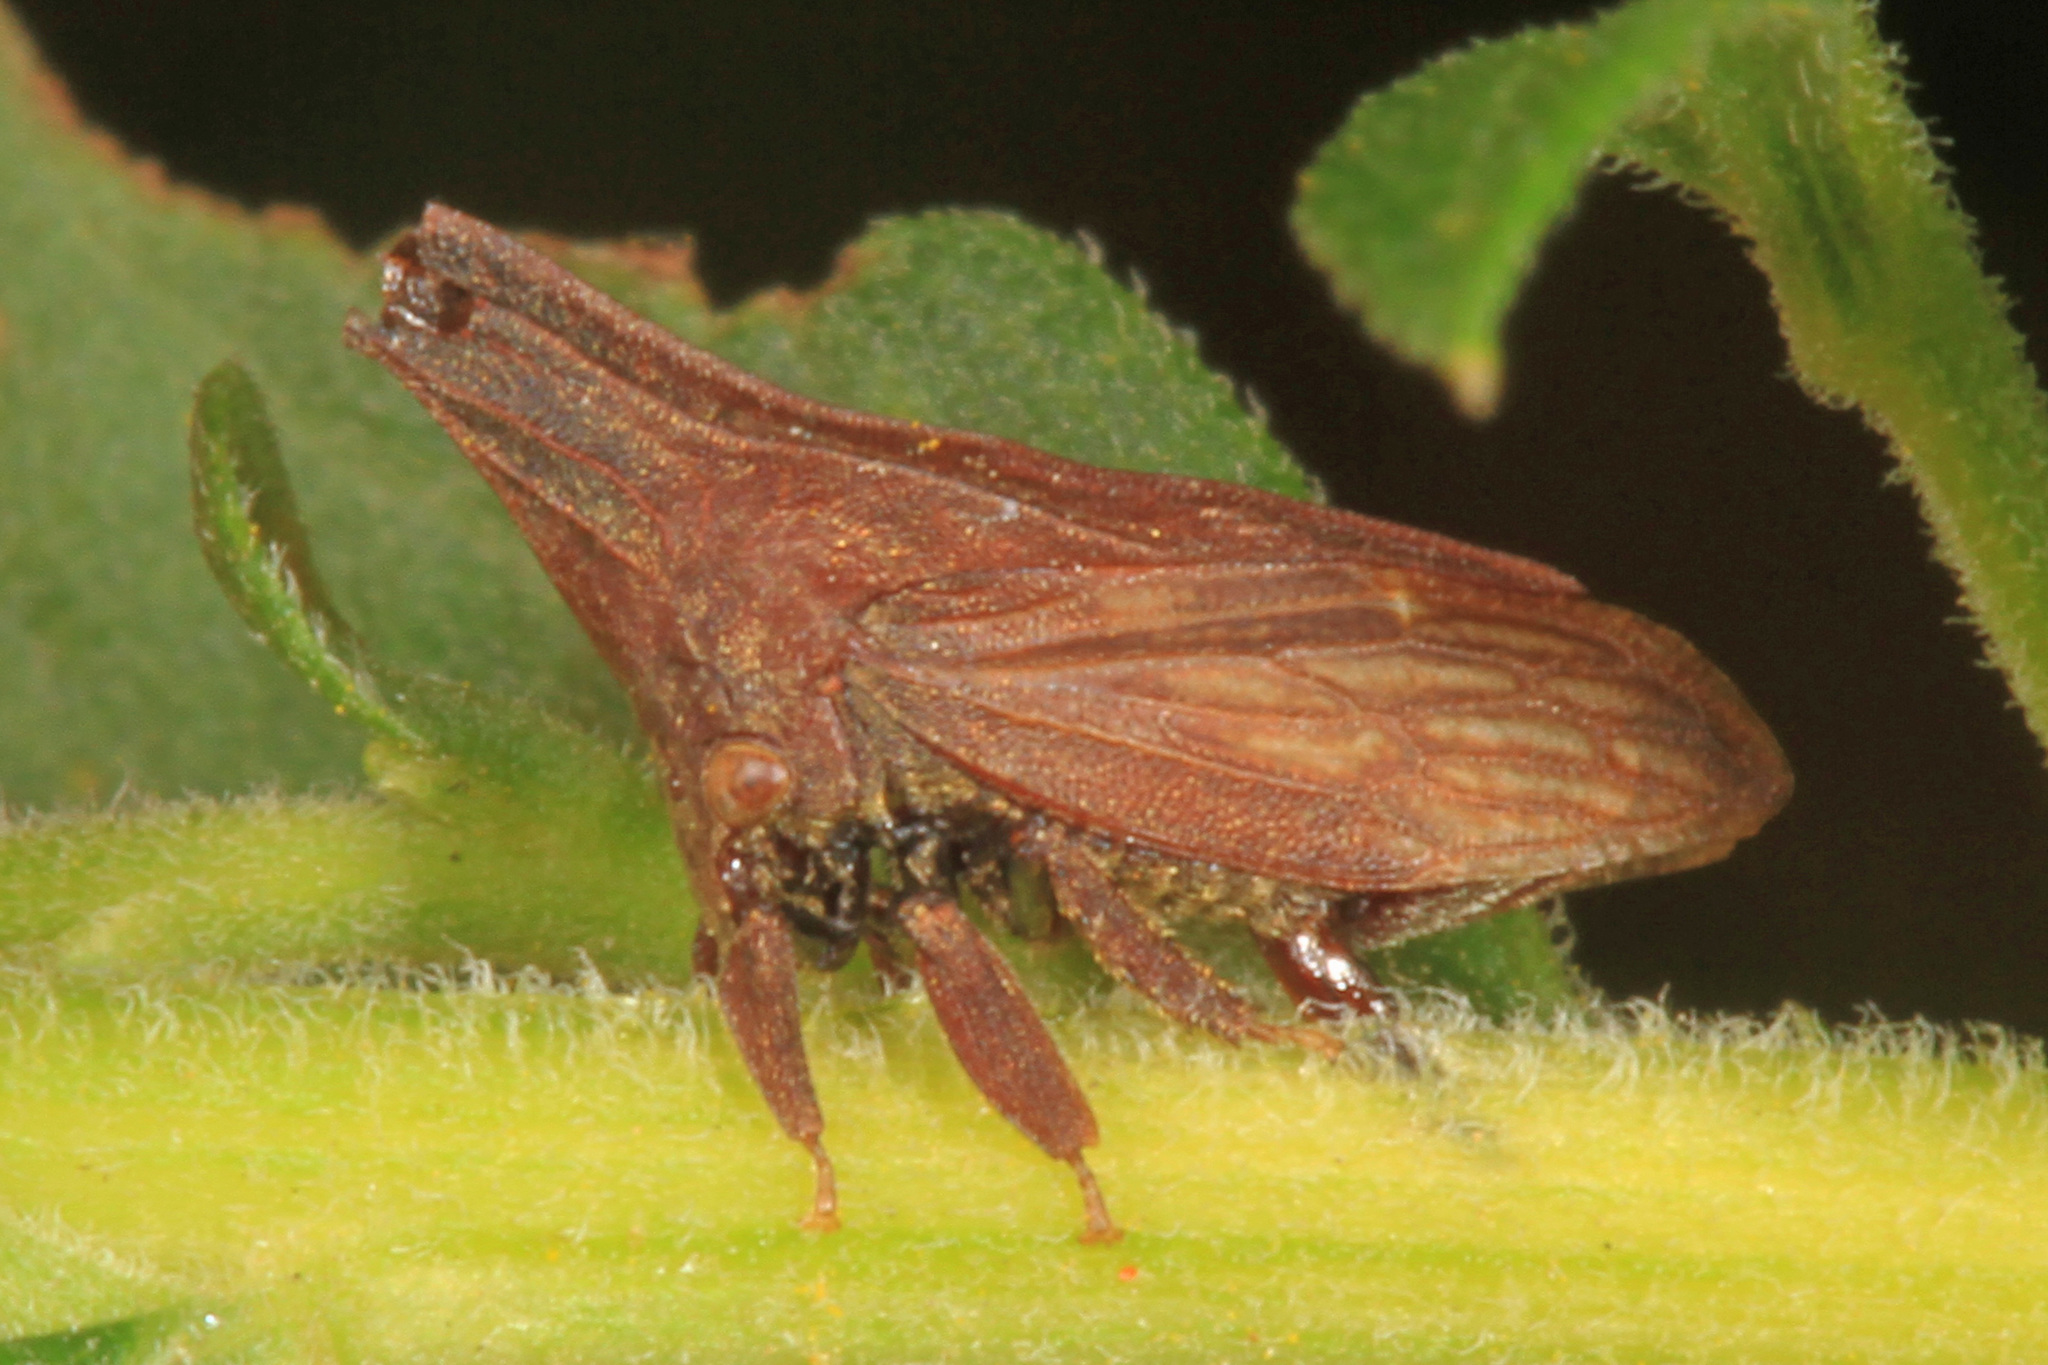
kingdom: Animalia
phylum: Arthropoda
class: Insecta
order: Hemiptera
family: Membracidae
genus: Enchenopa
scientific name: Enchenopa latipes
